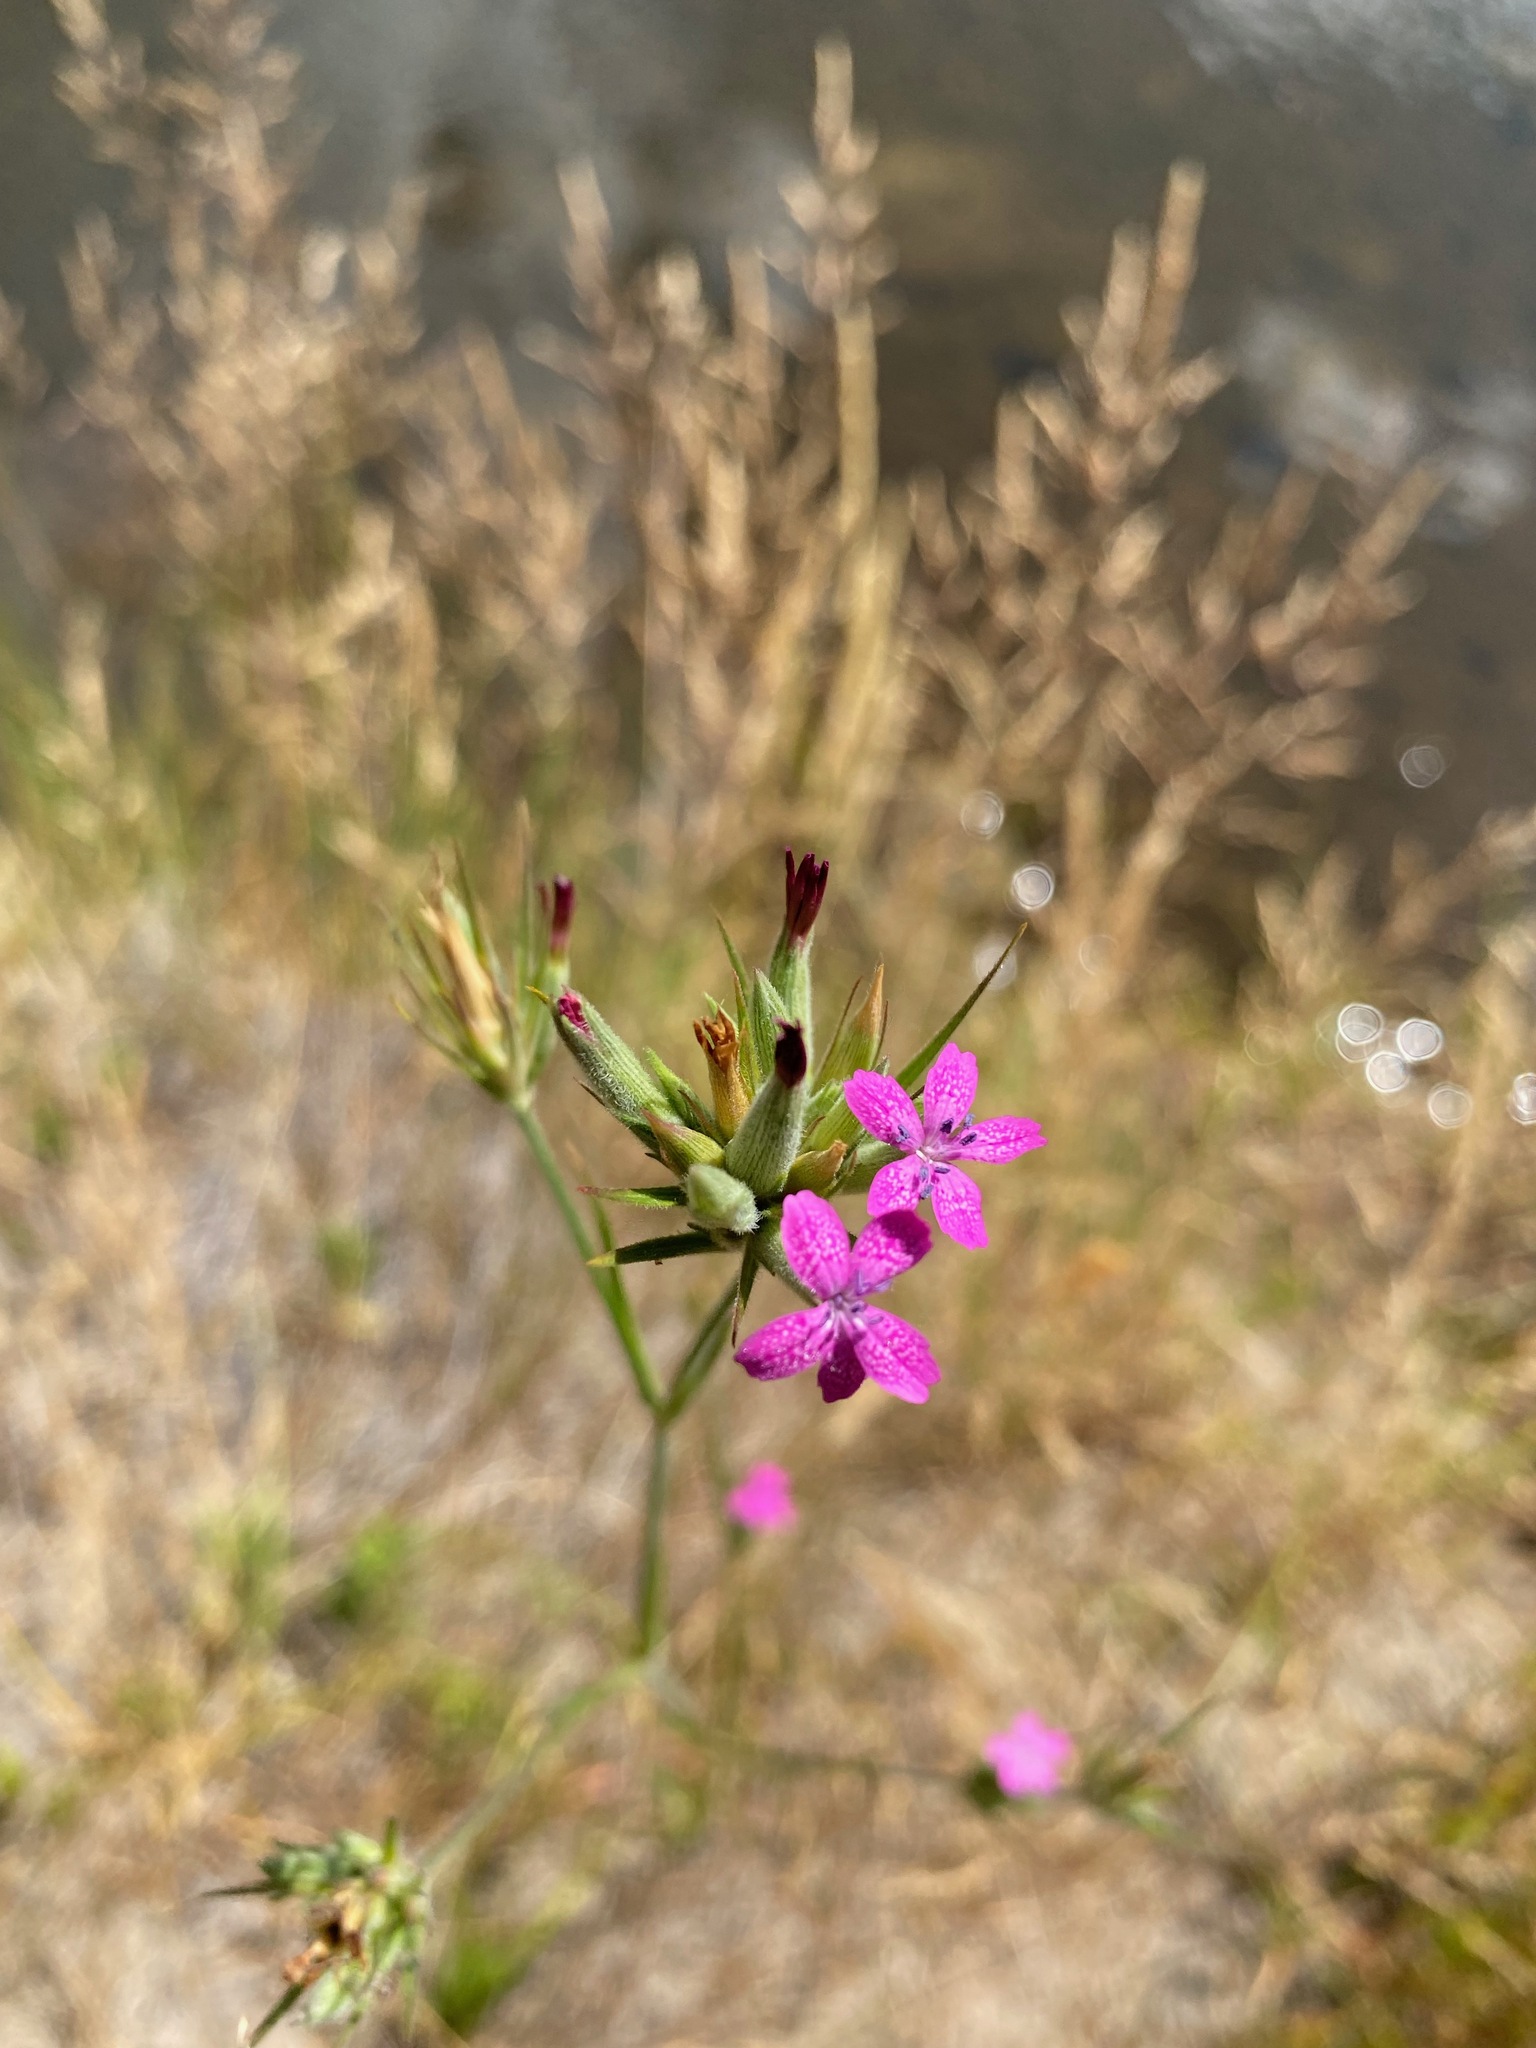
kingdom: Plantae
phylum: Tracheophyta
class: Magnoliopsida
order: Caryophyllales
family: Caryophyllaceae
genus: Dianthus
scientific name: Dianthus armeria
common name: Deptford pink
